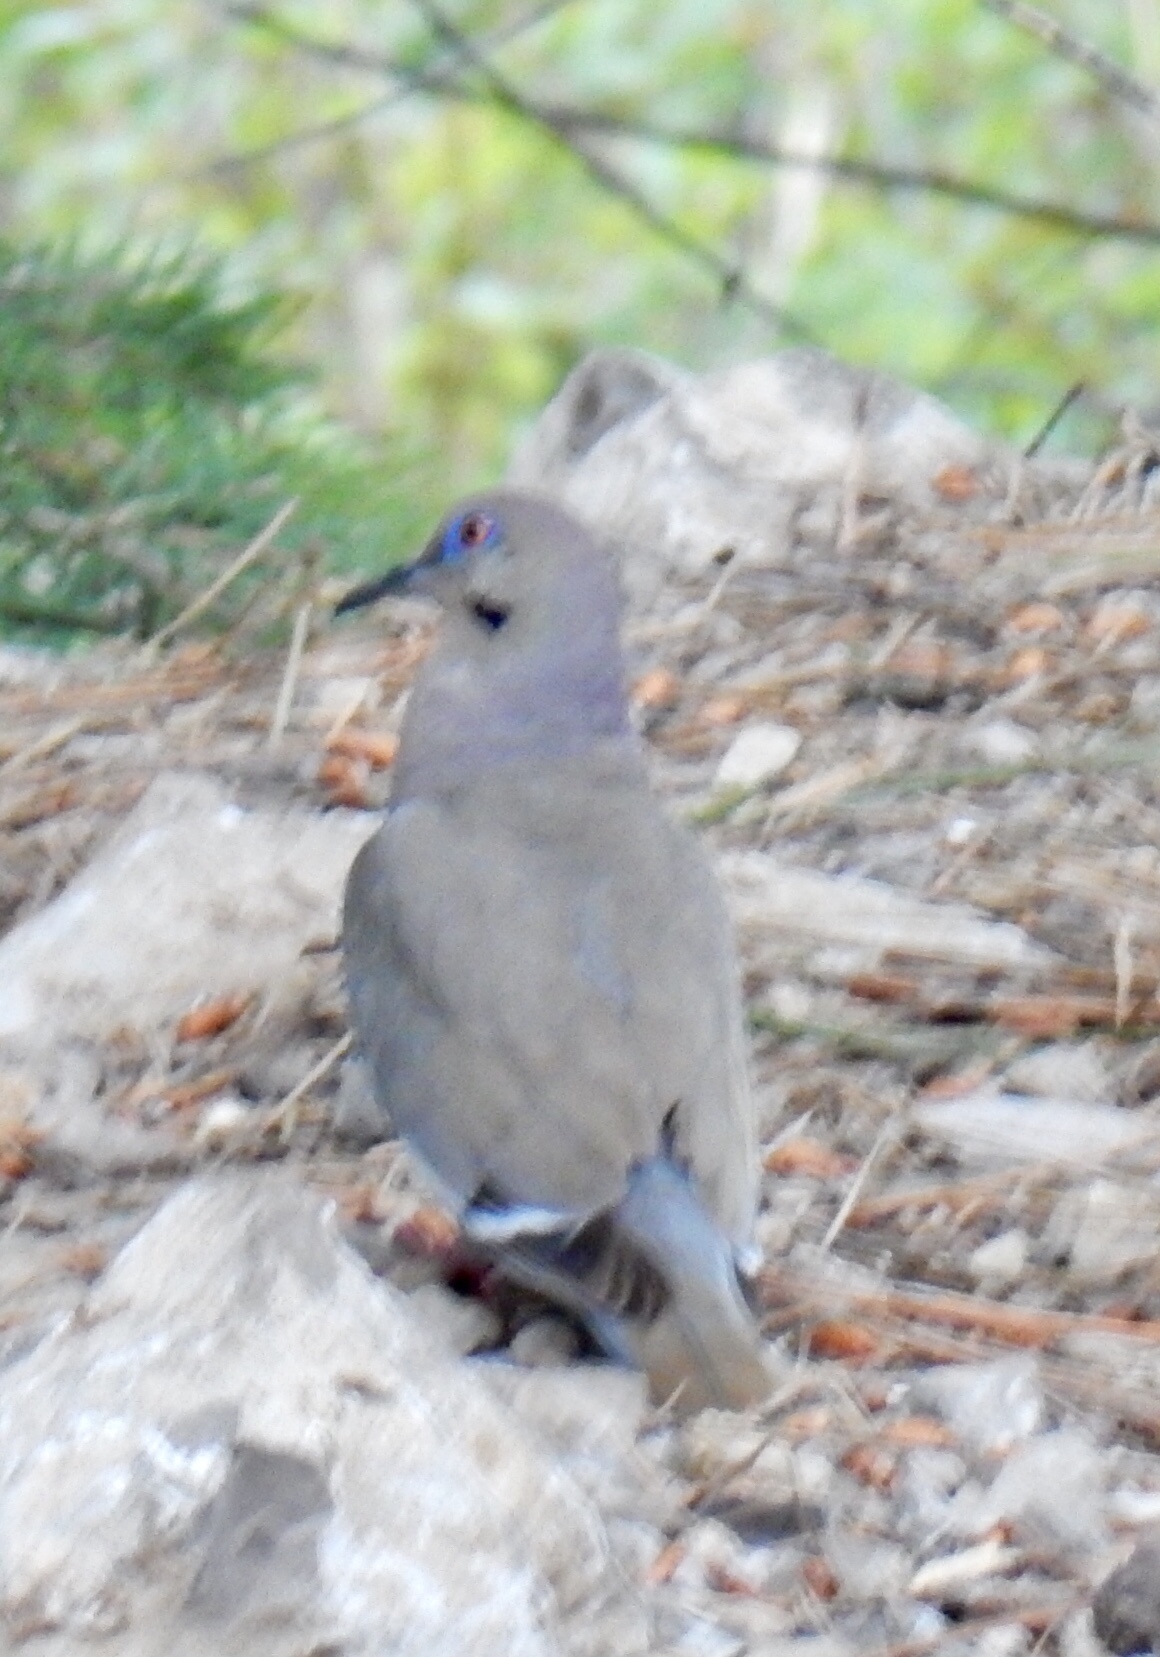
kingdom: Animalia
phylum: Chordata
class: Aves
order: Columbiformes
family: Columbidae
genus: Zenaida
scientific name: Zenaida asiatica
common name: White-winged dove
